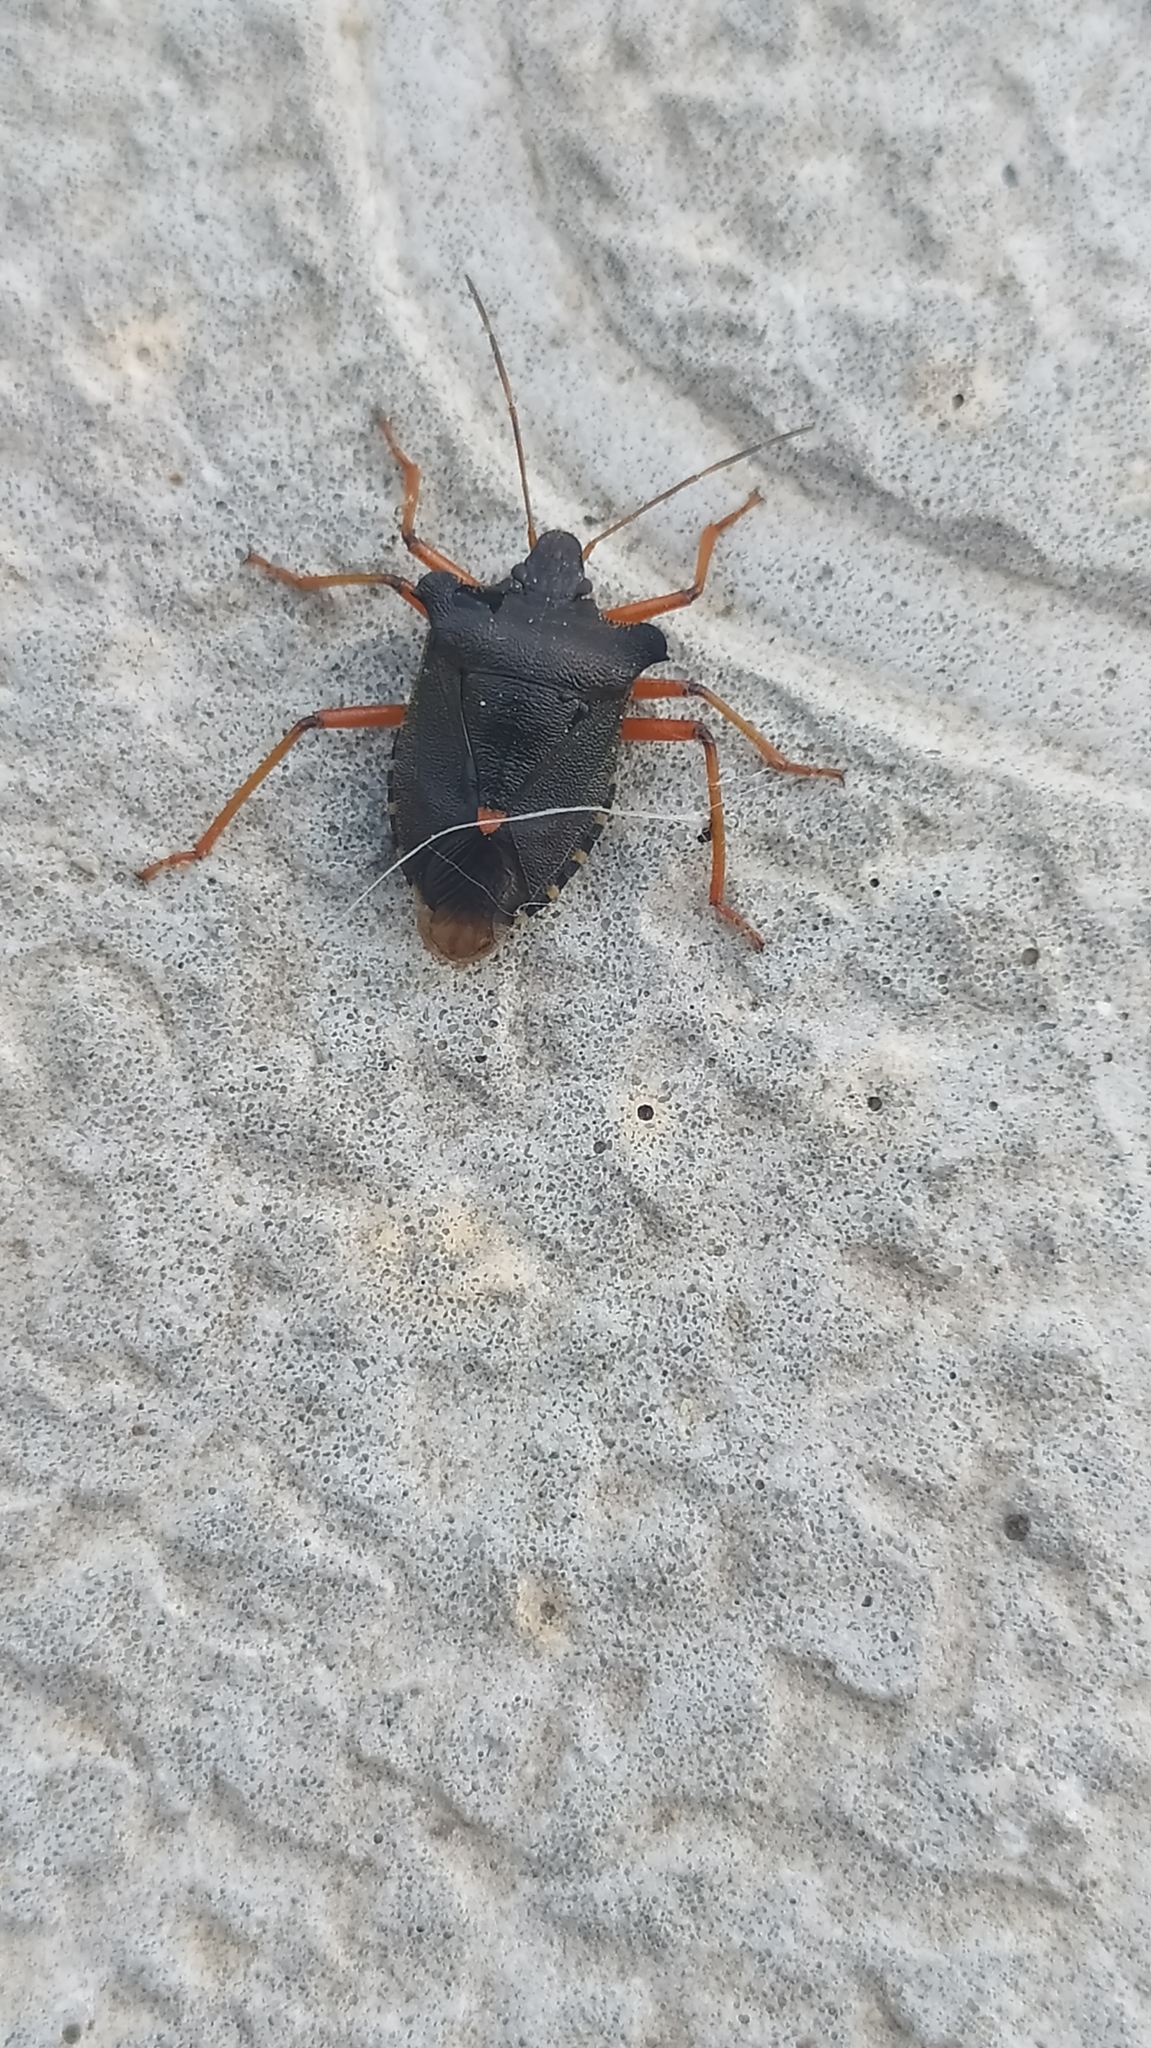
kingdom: Animalia
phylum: Arthropoda
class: Insecta
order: Hemiptera
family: Pentatomidae
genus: Pentatoma
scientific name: Pentatoma rufipes
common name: Forest bug
